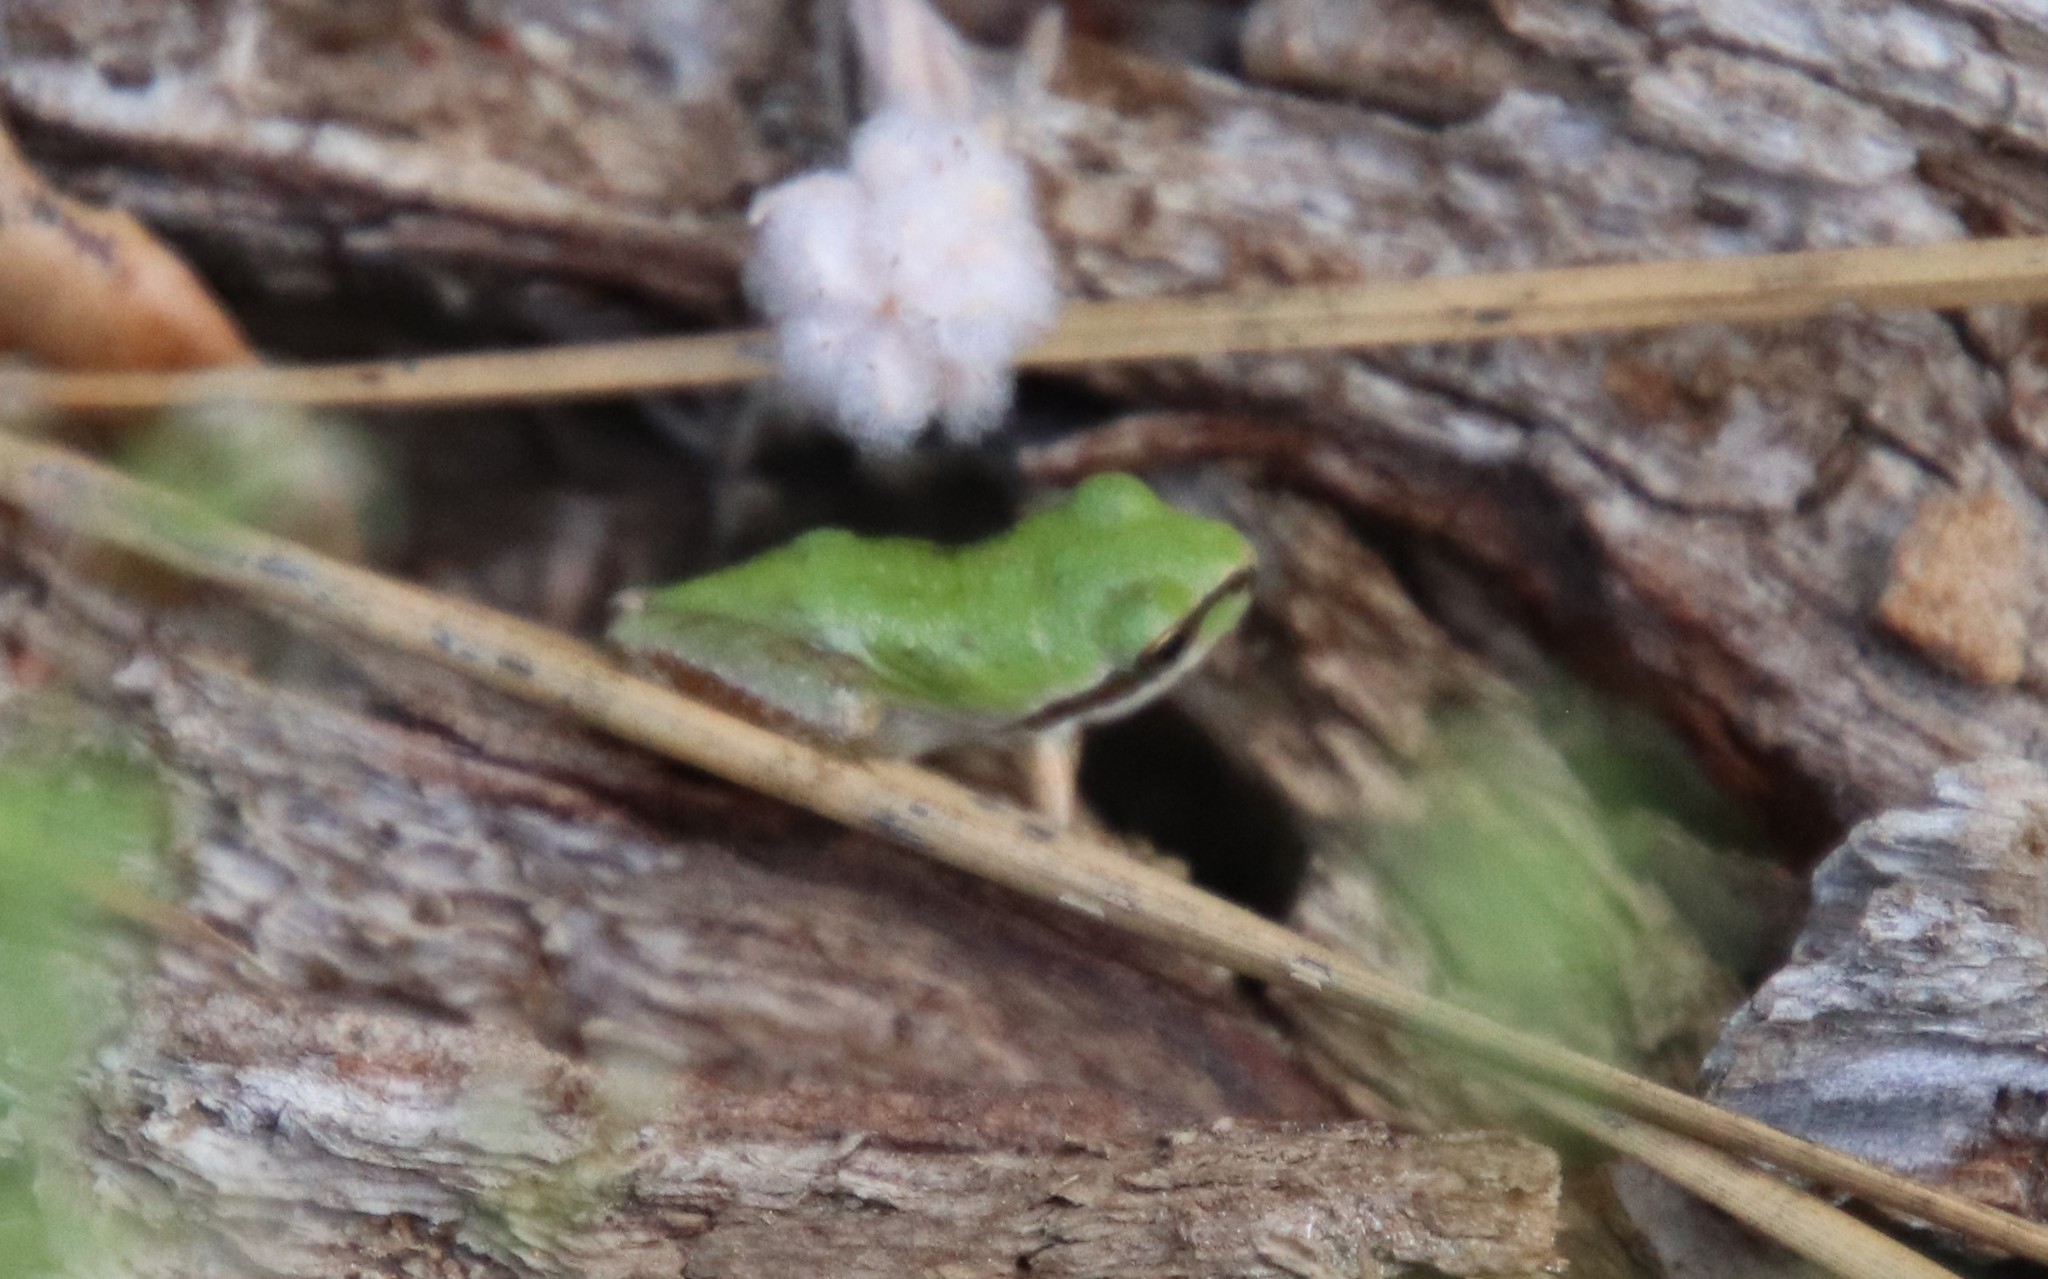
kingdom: Animalia
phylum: Chordata
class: Amphibia
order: Anura
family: Hylidae
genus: Pseudacris
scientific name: Pseudacris regilla
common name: Pacific chorus frog
